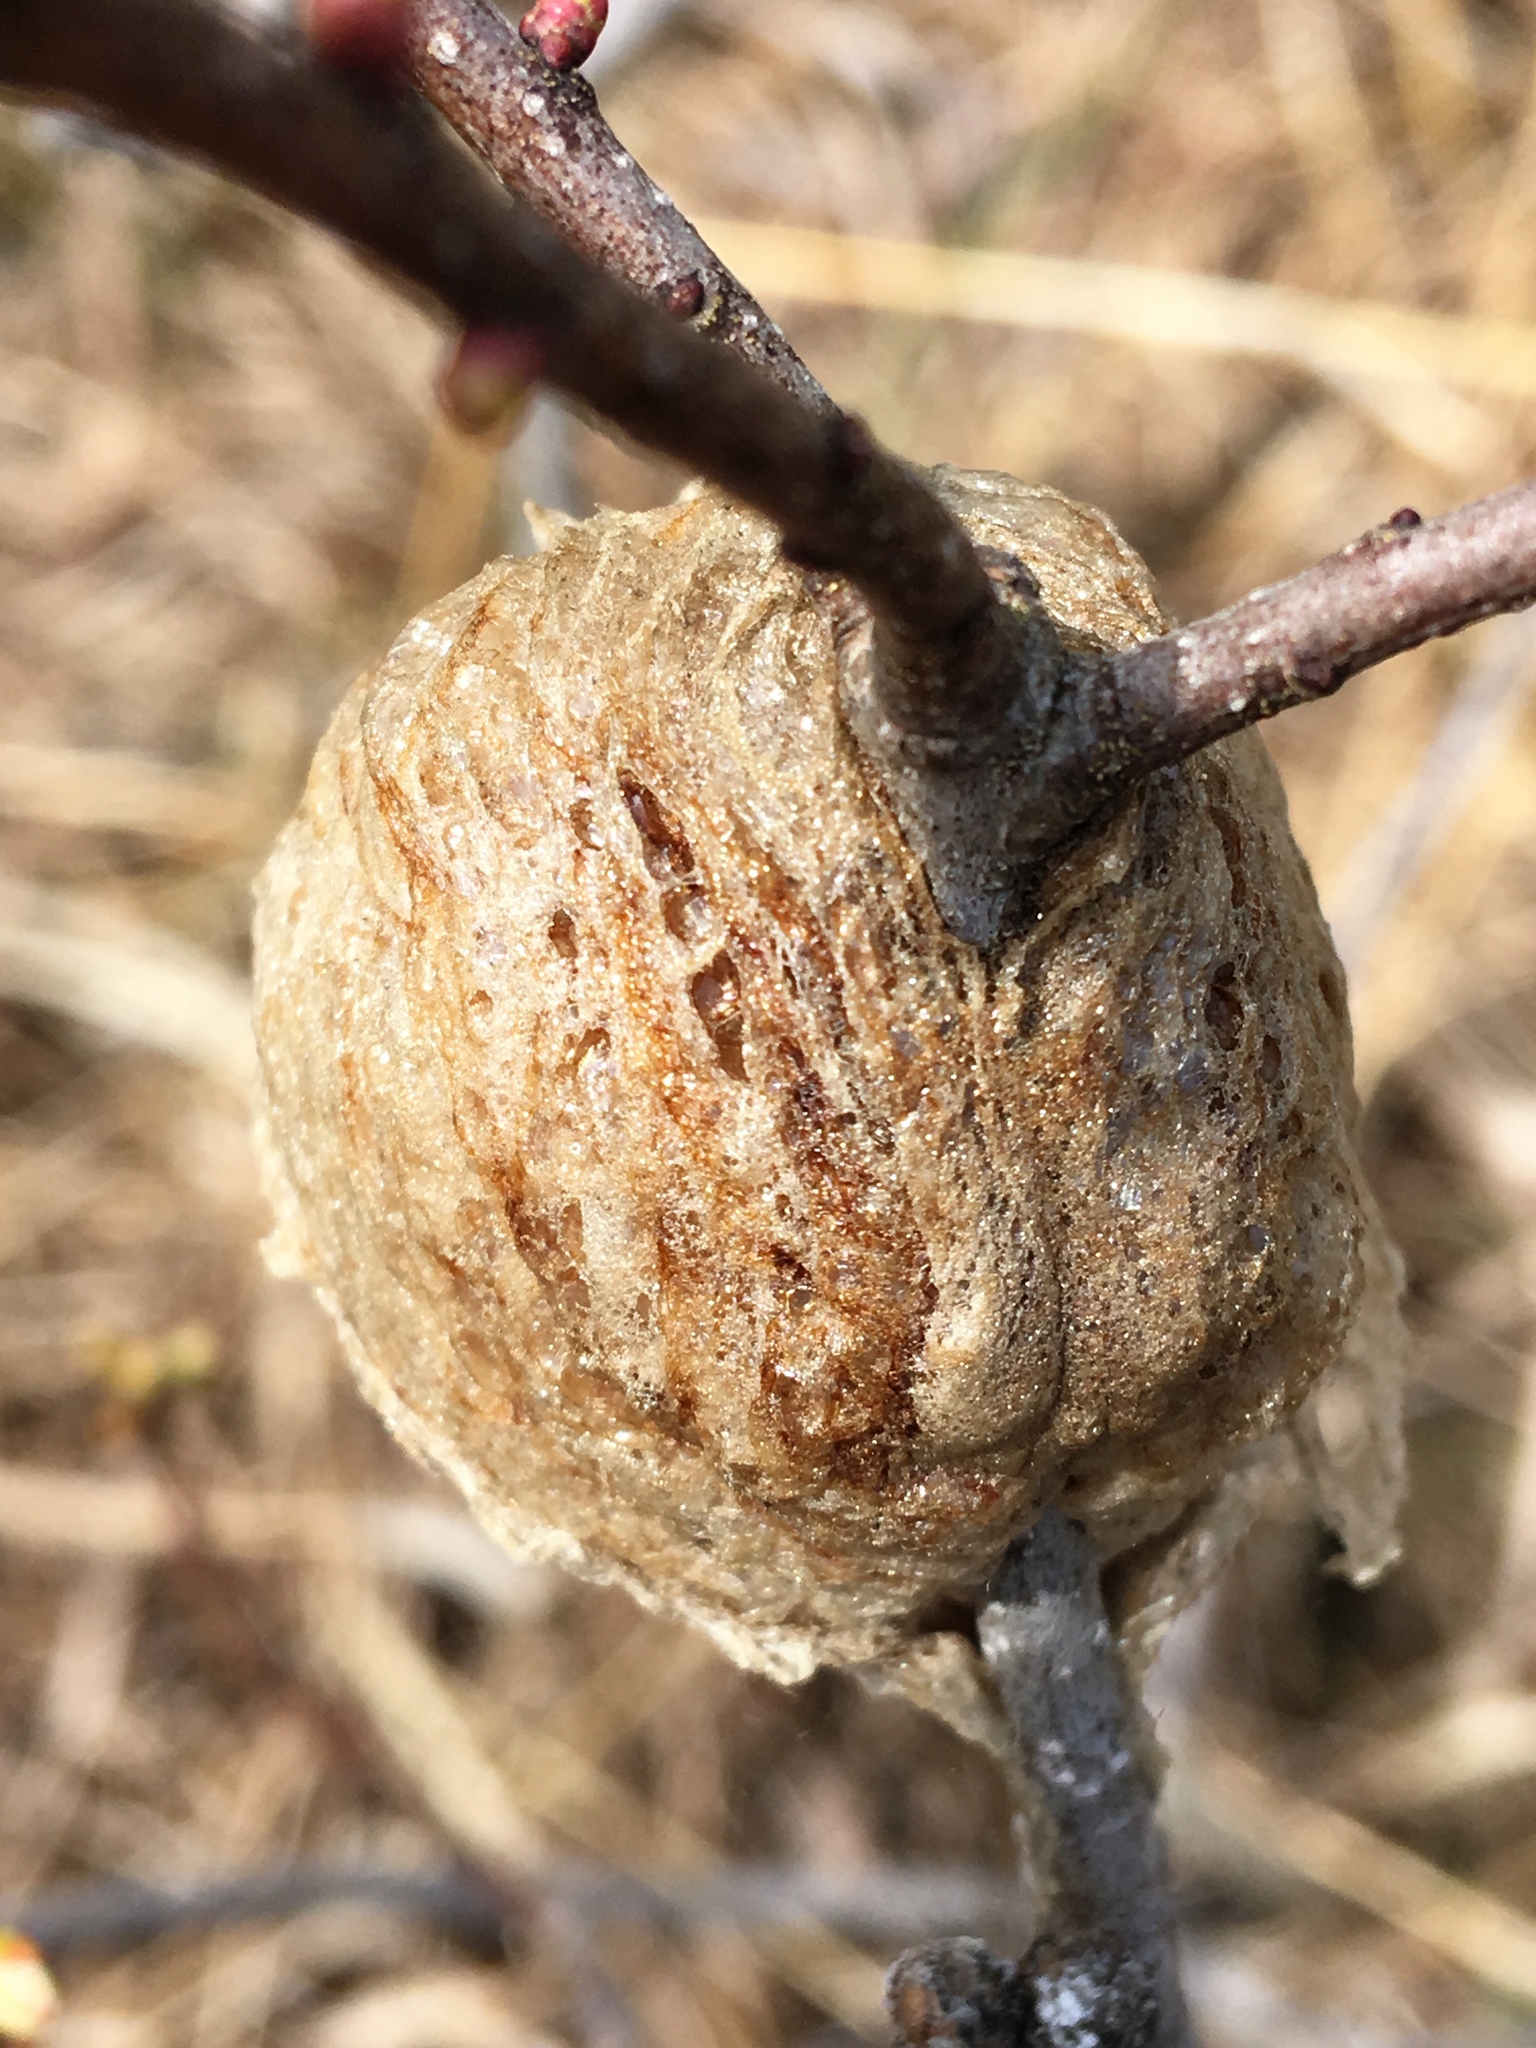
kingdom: Animalia
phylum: Arthropoda
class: Insecta
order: Mantodea
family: Mantidae
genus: Tenodera
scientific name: Tenodera sinensis
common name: Chinese mantis
